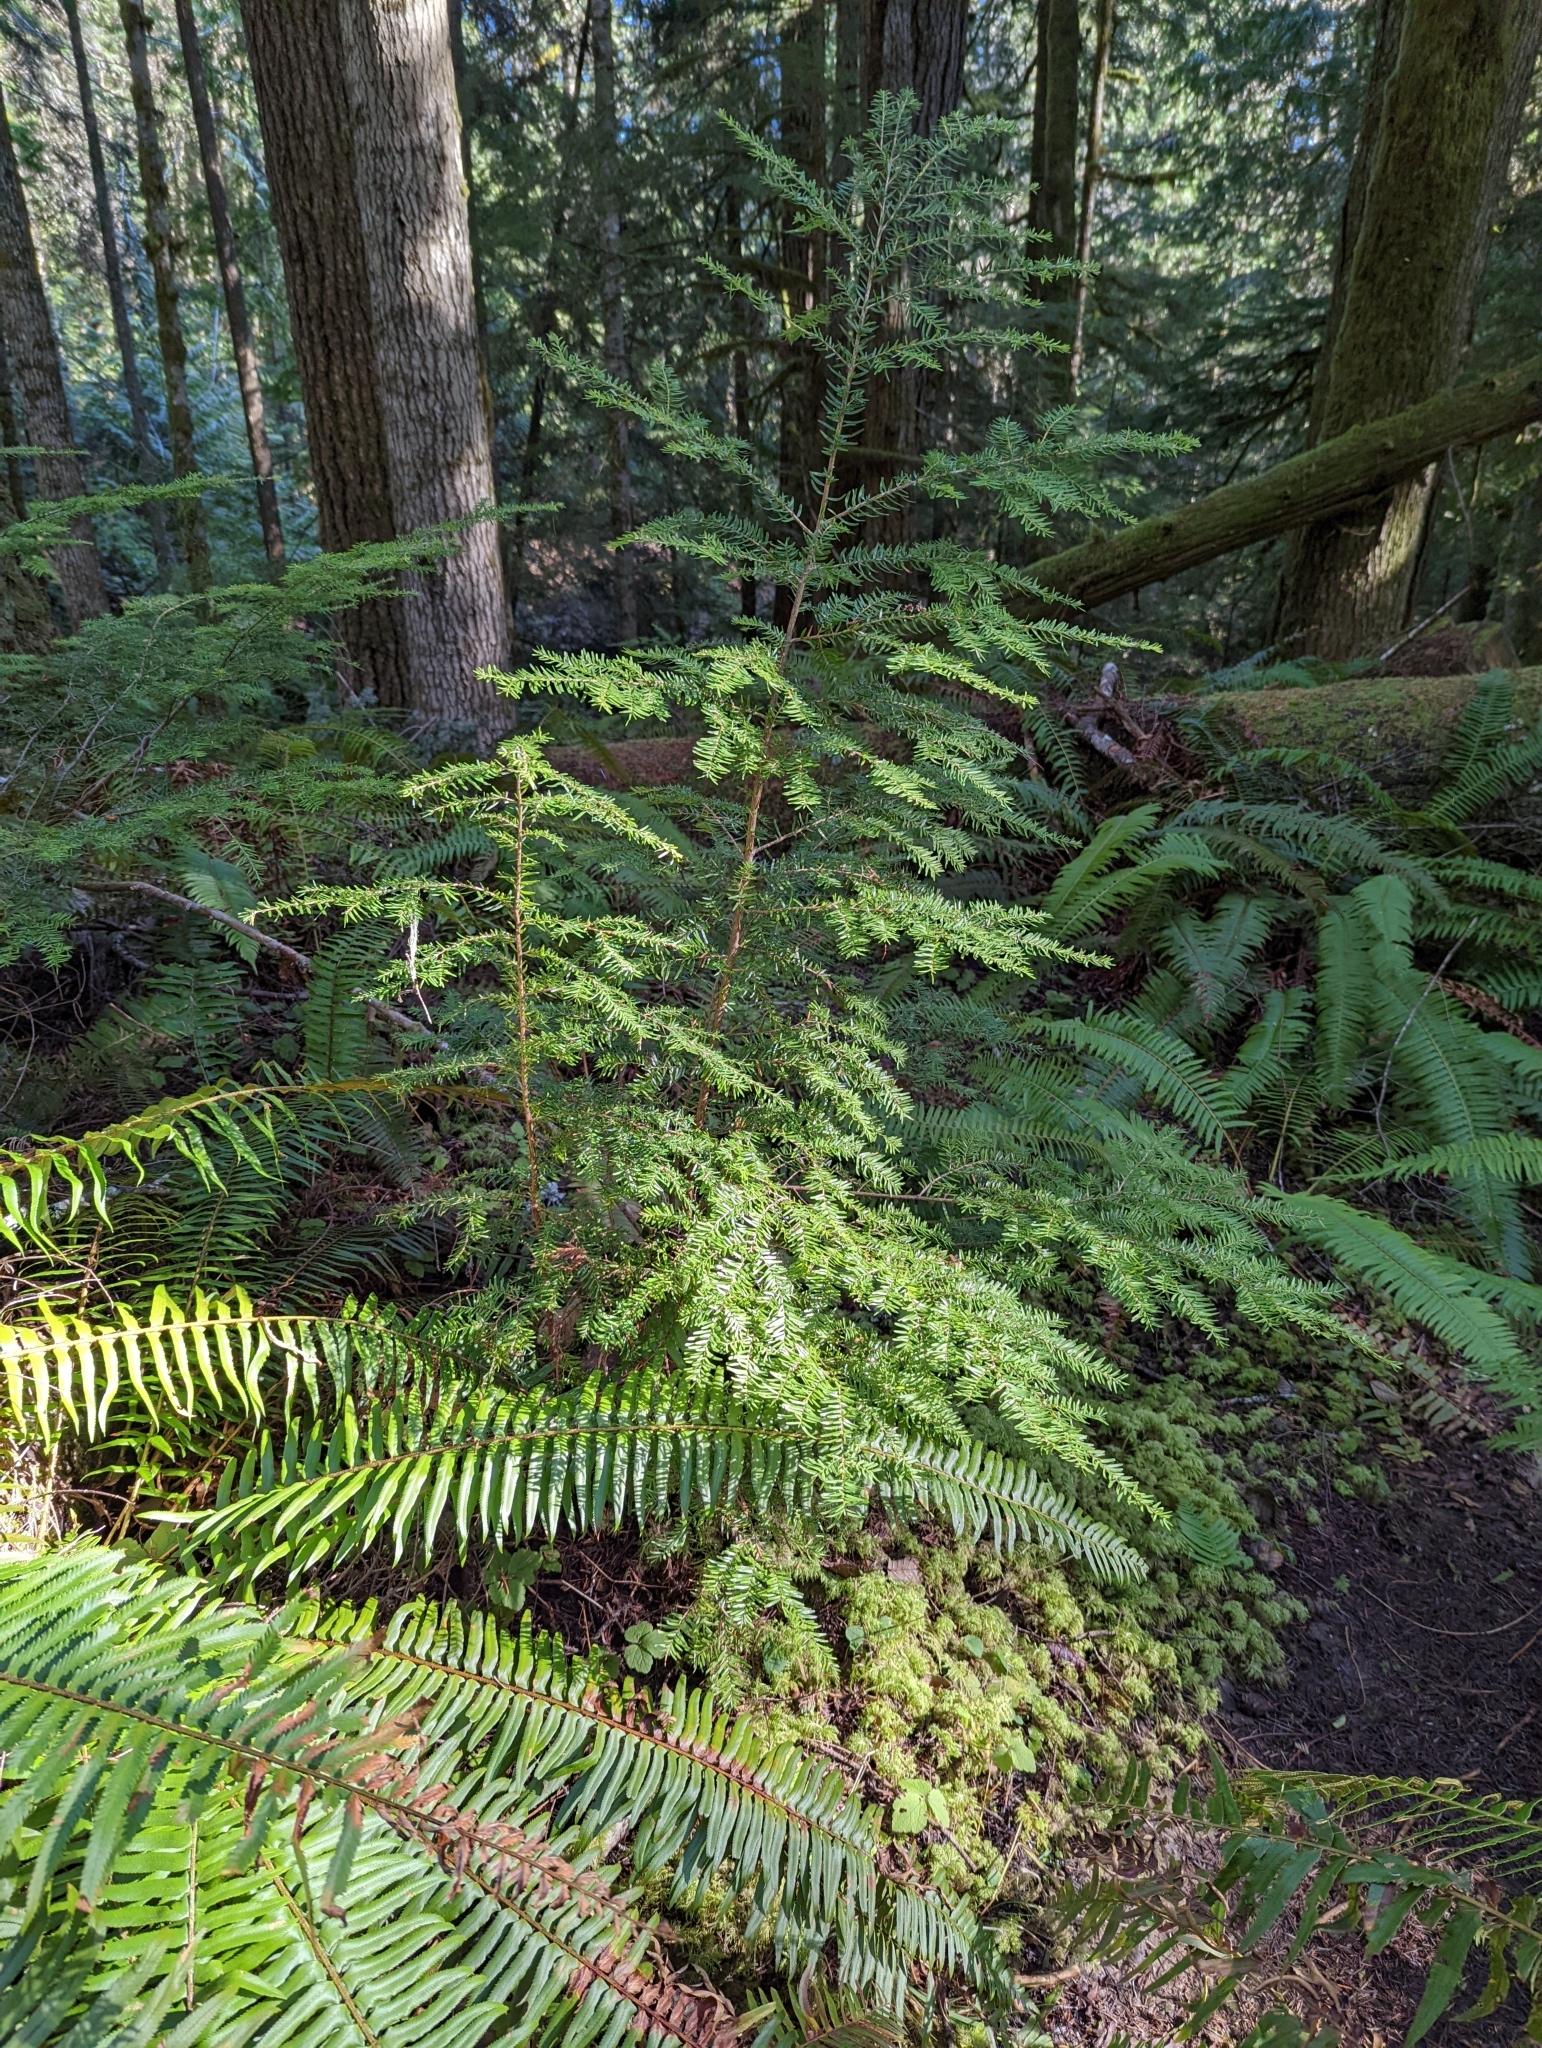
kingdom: Plantae
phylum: Tracheophyta
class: Pinopsida
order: Pinales
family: Pinaceae
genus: Tsuga
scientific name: Tsuga heterophylla
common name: Western hemlock
